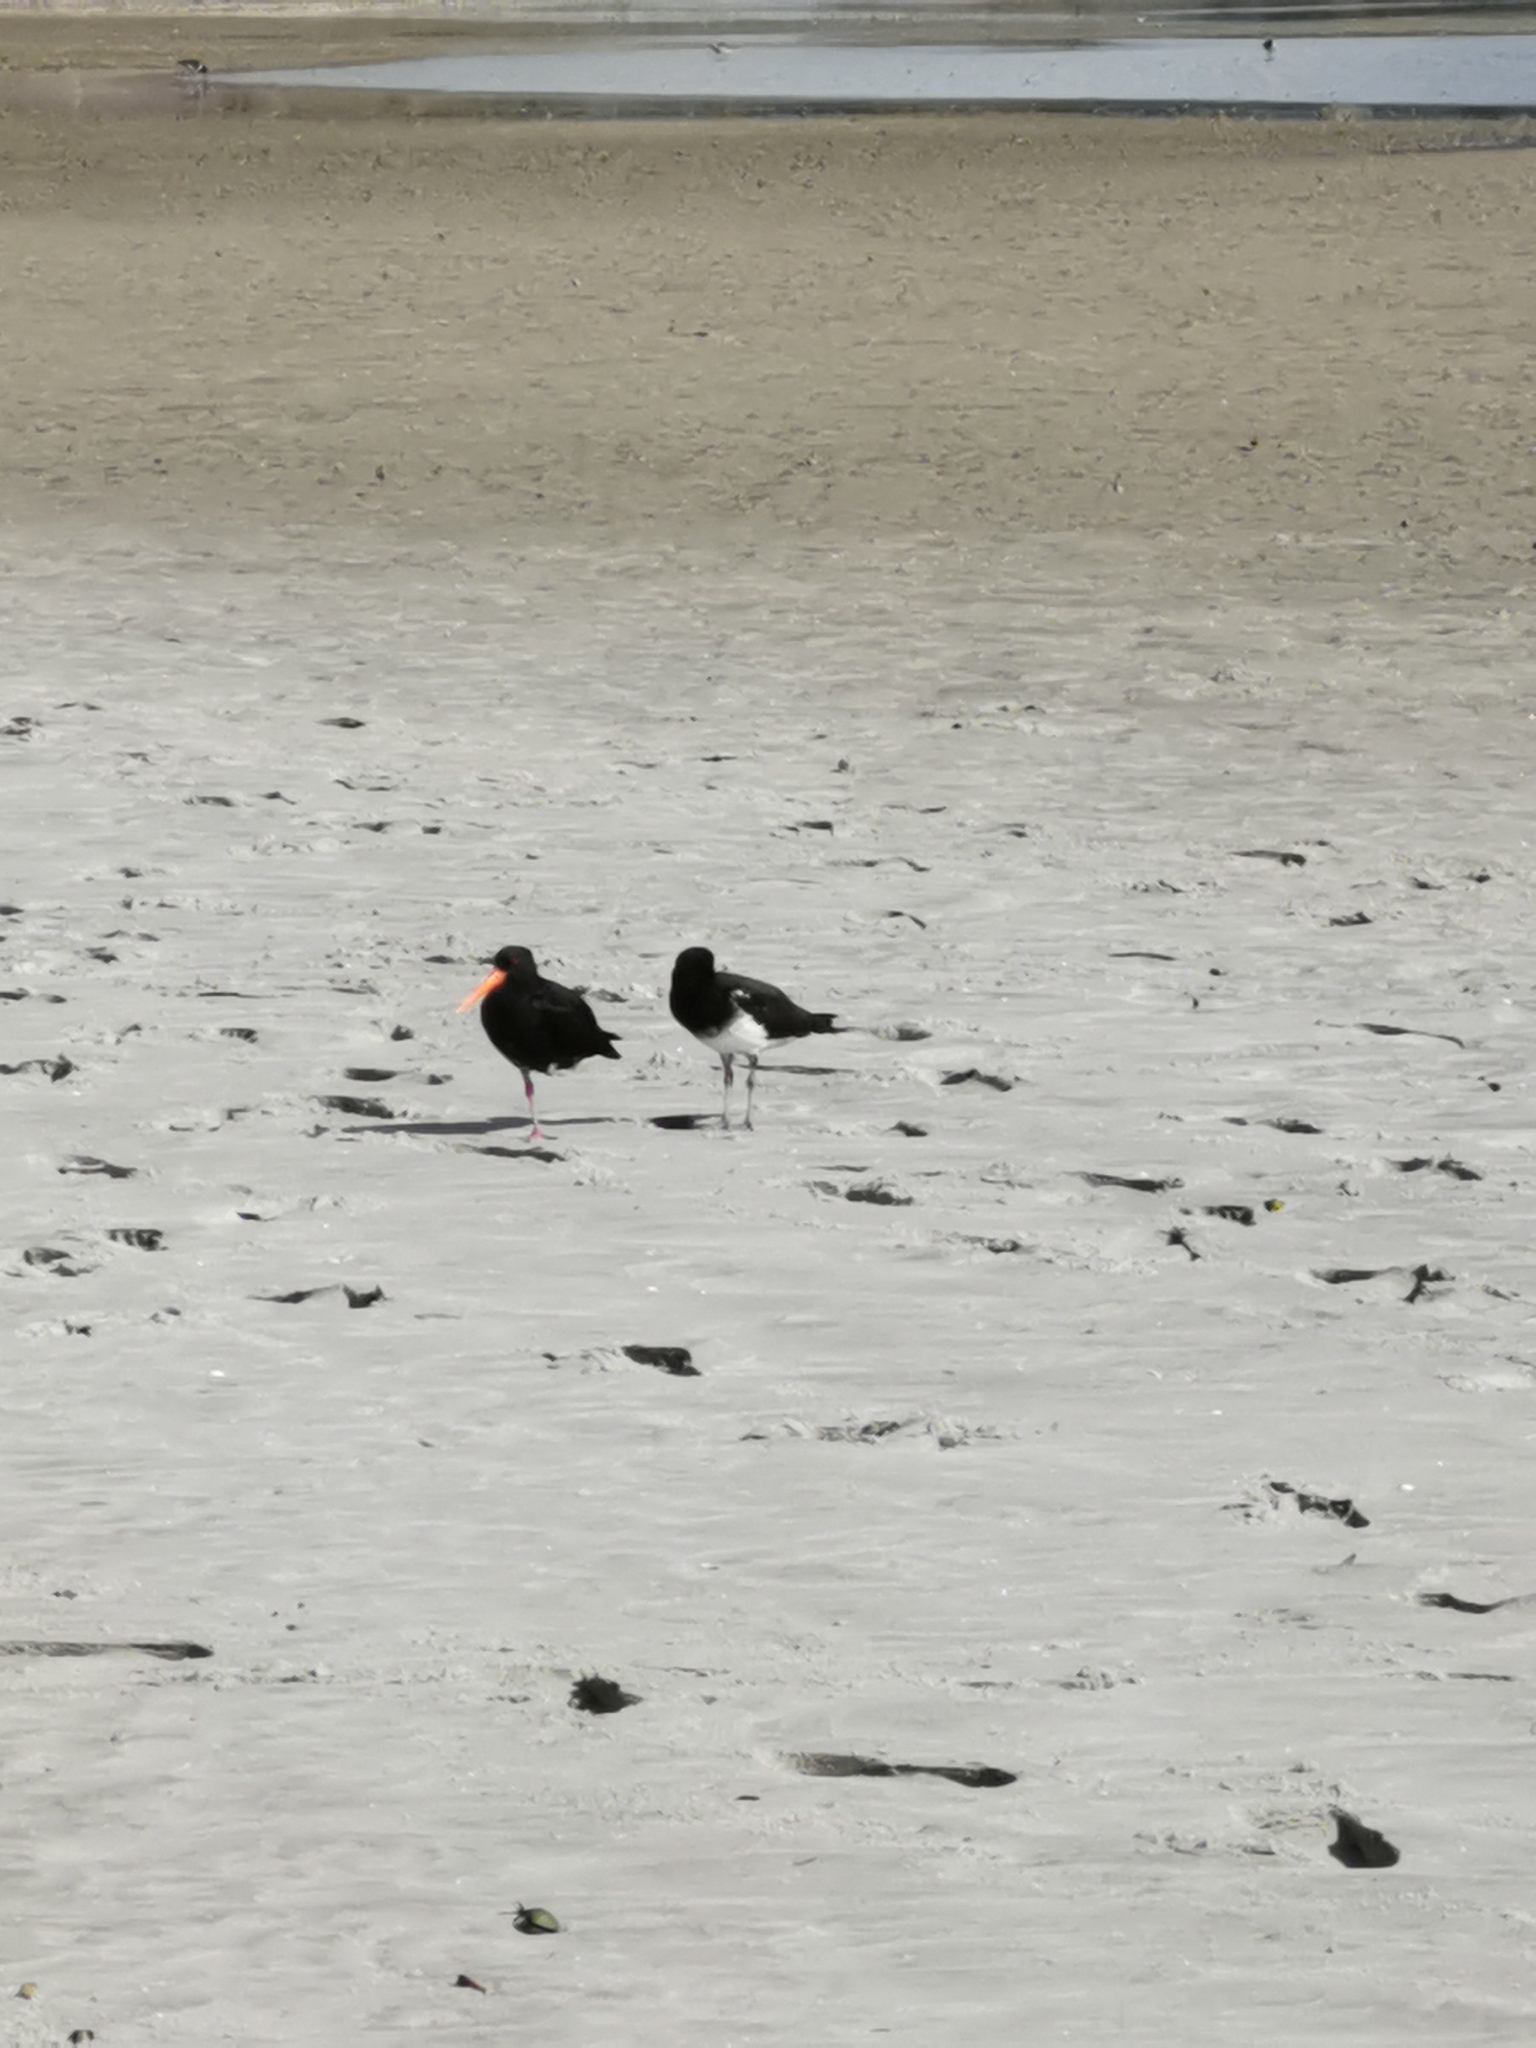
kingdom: Animalia
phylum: Chordata
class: Aves
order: Charadriiformes
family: Haematopodidae
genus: Haematopus
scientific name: Haematopus unicolor
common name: Variable oystercatcher
